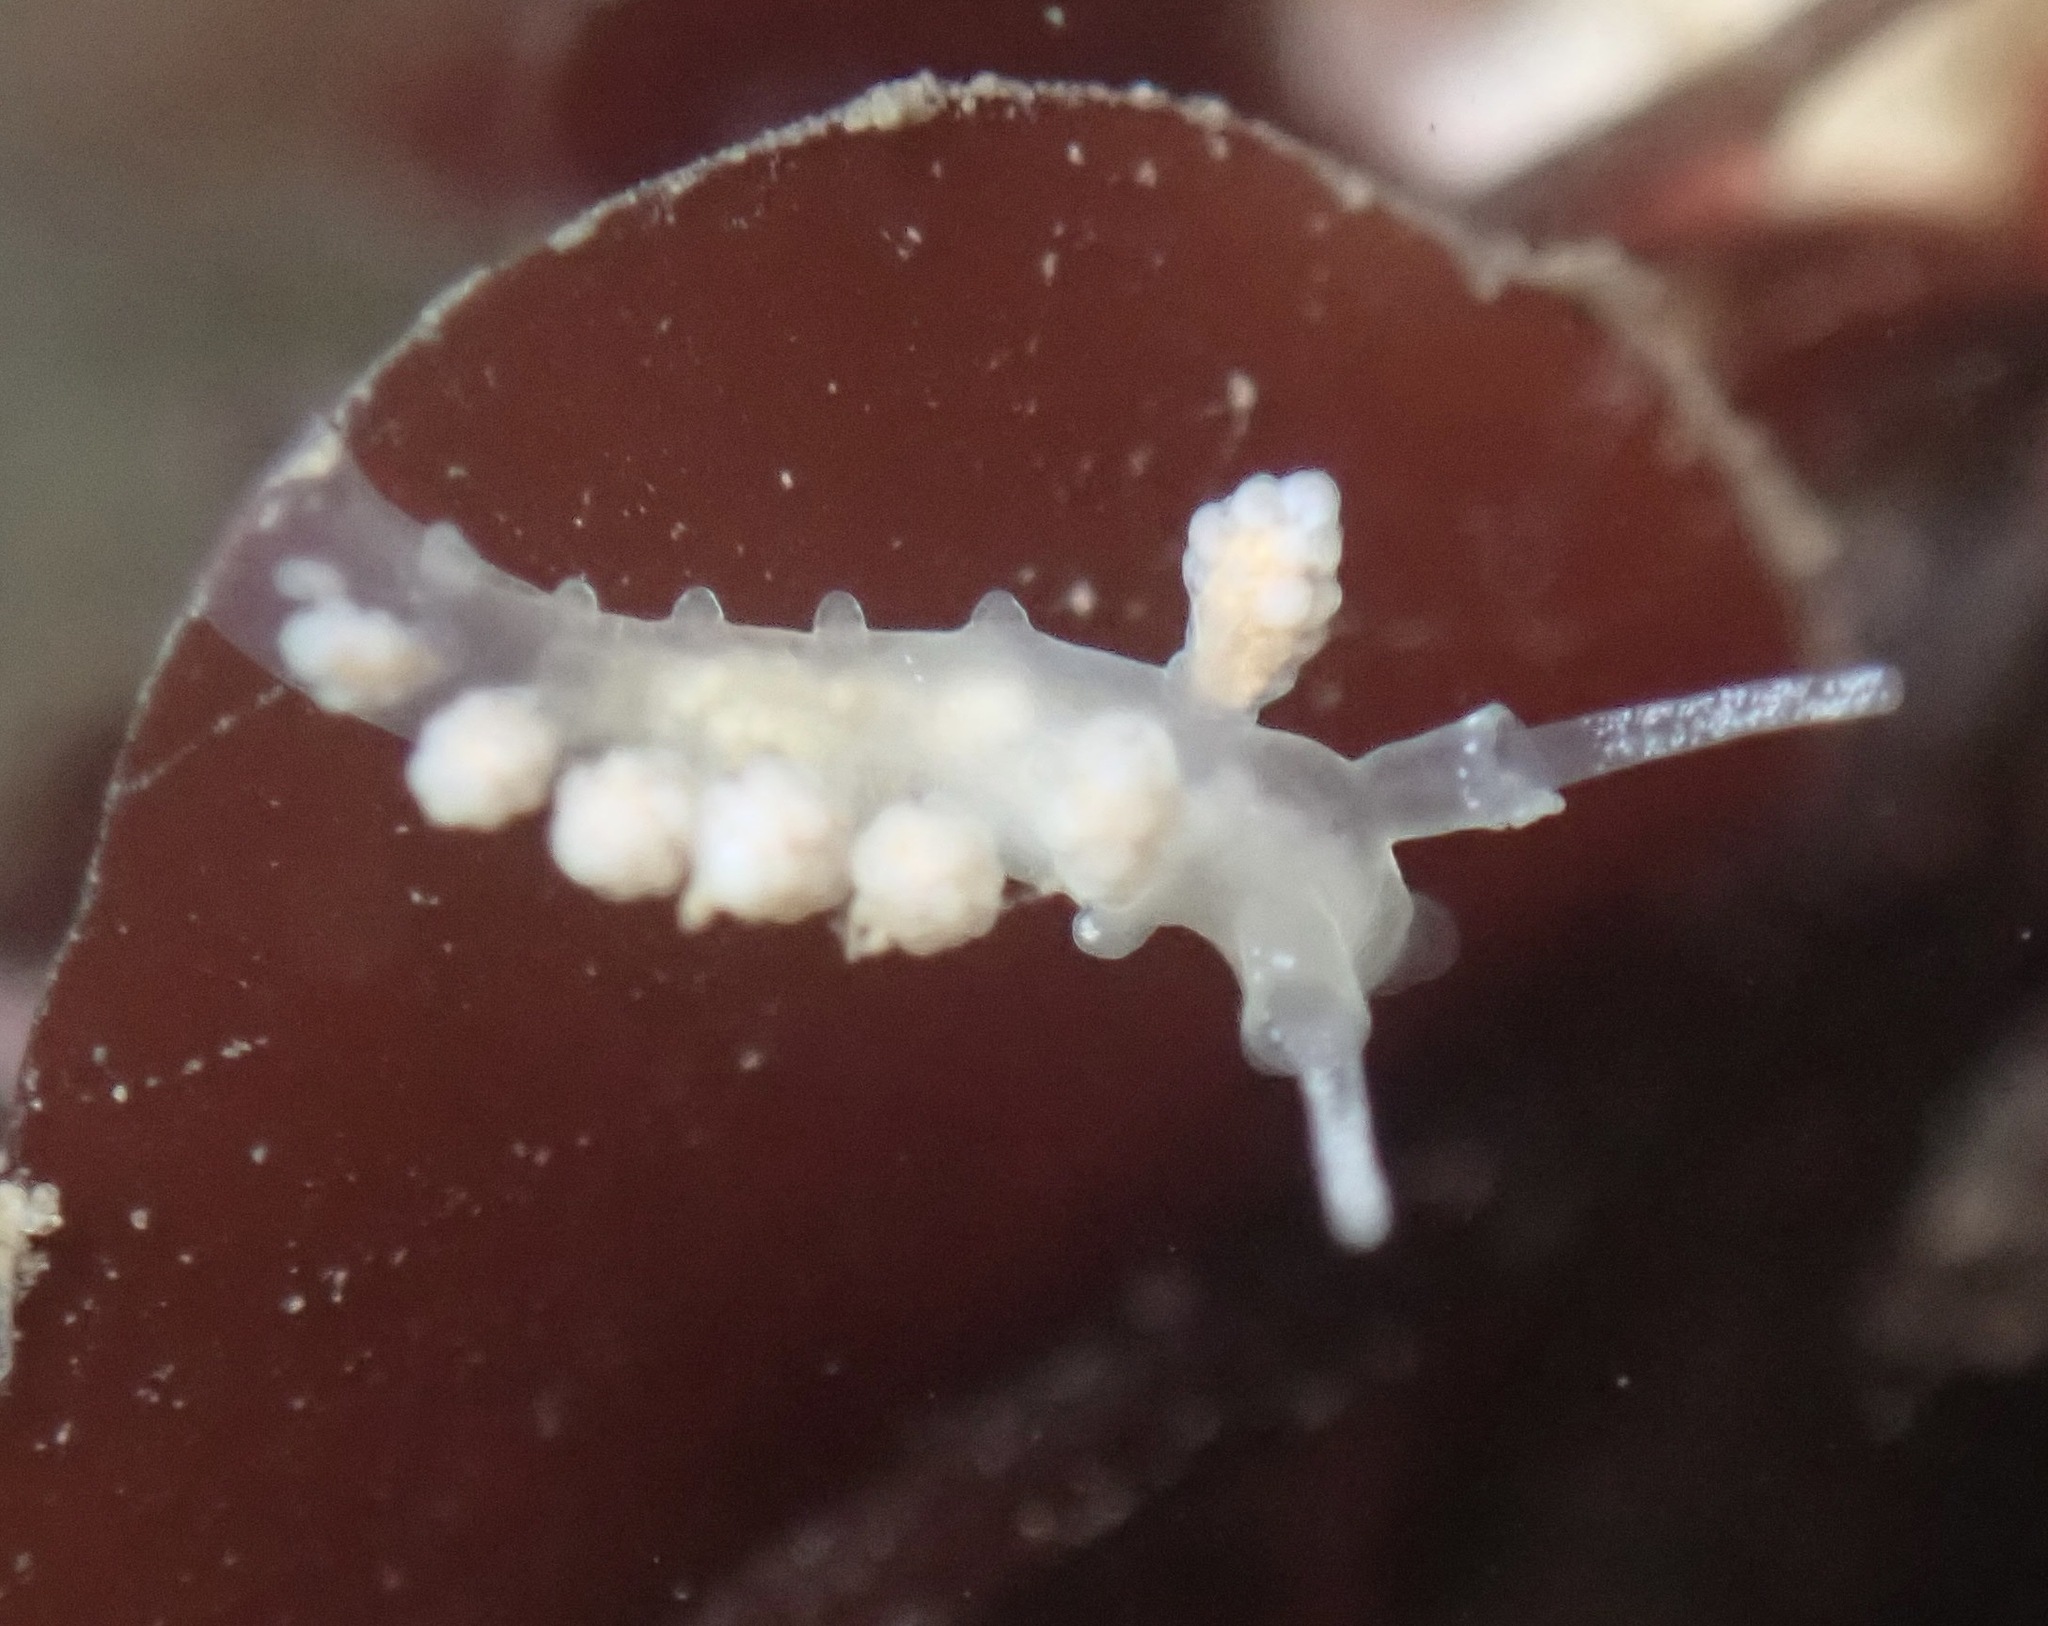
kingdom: Animalia
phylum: Mollusca
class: Gastropoda
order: Nudibranchia
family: Dotidae
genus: Doto
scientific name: Doto amyra
